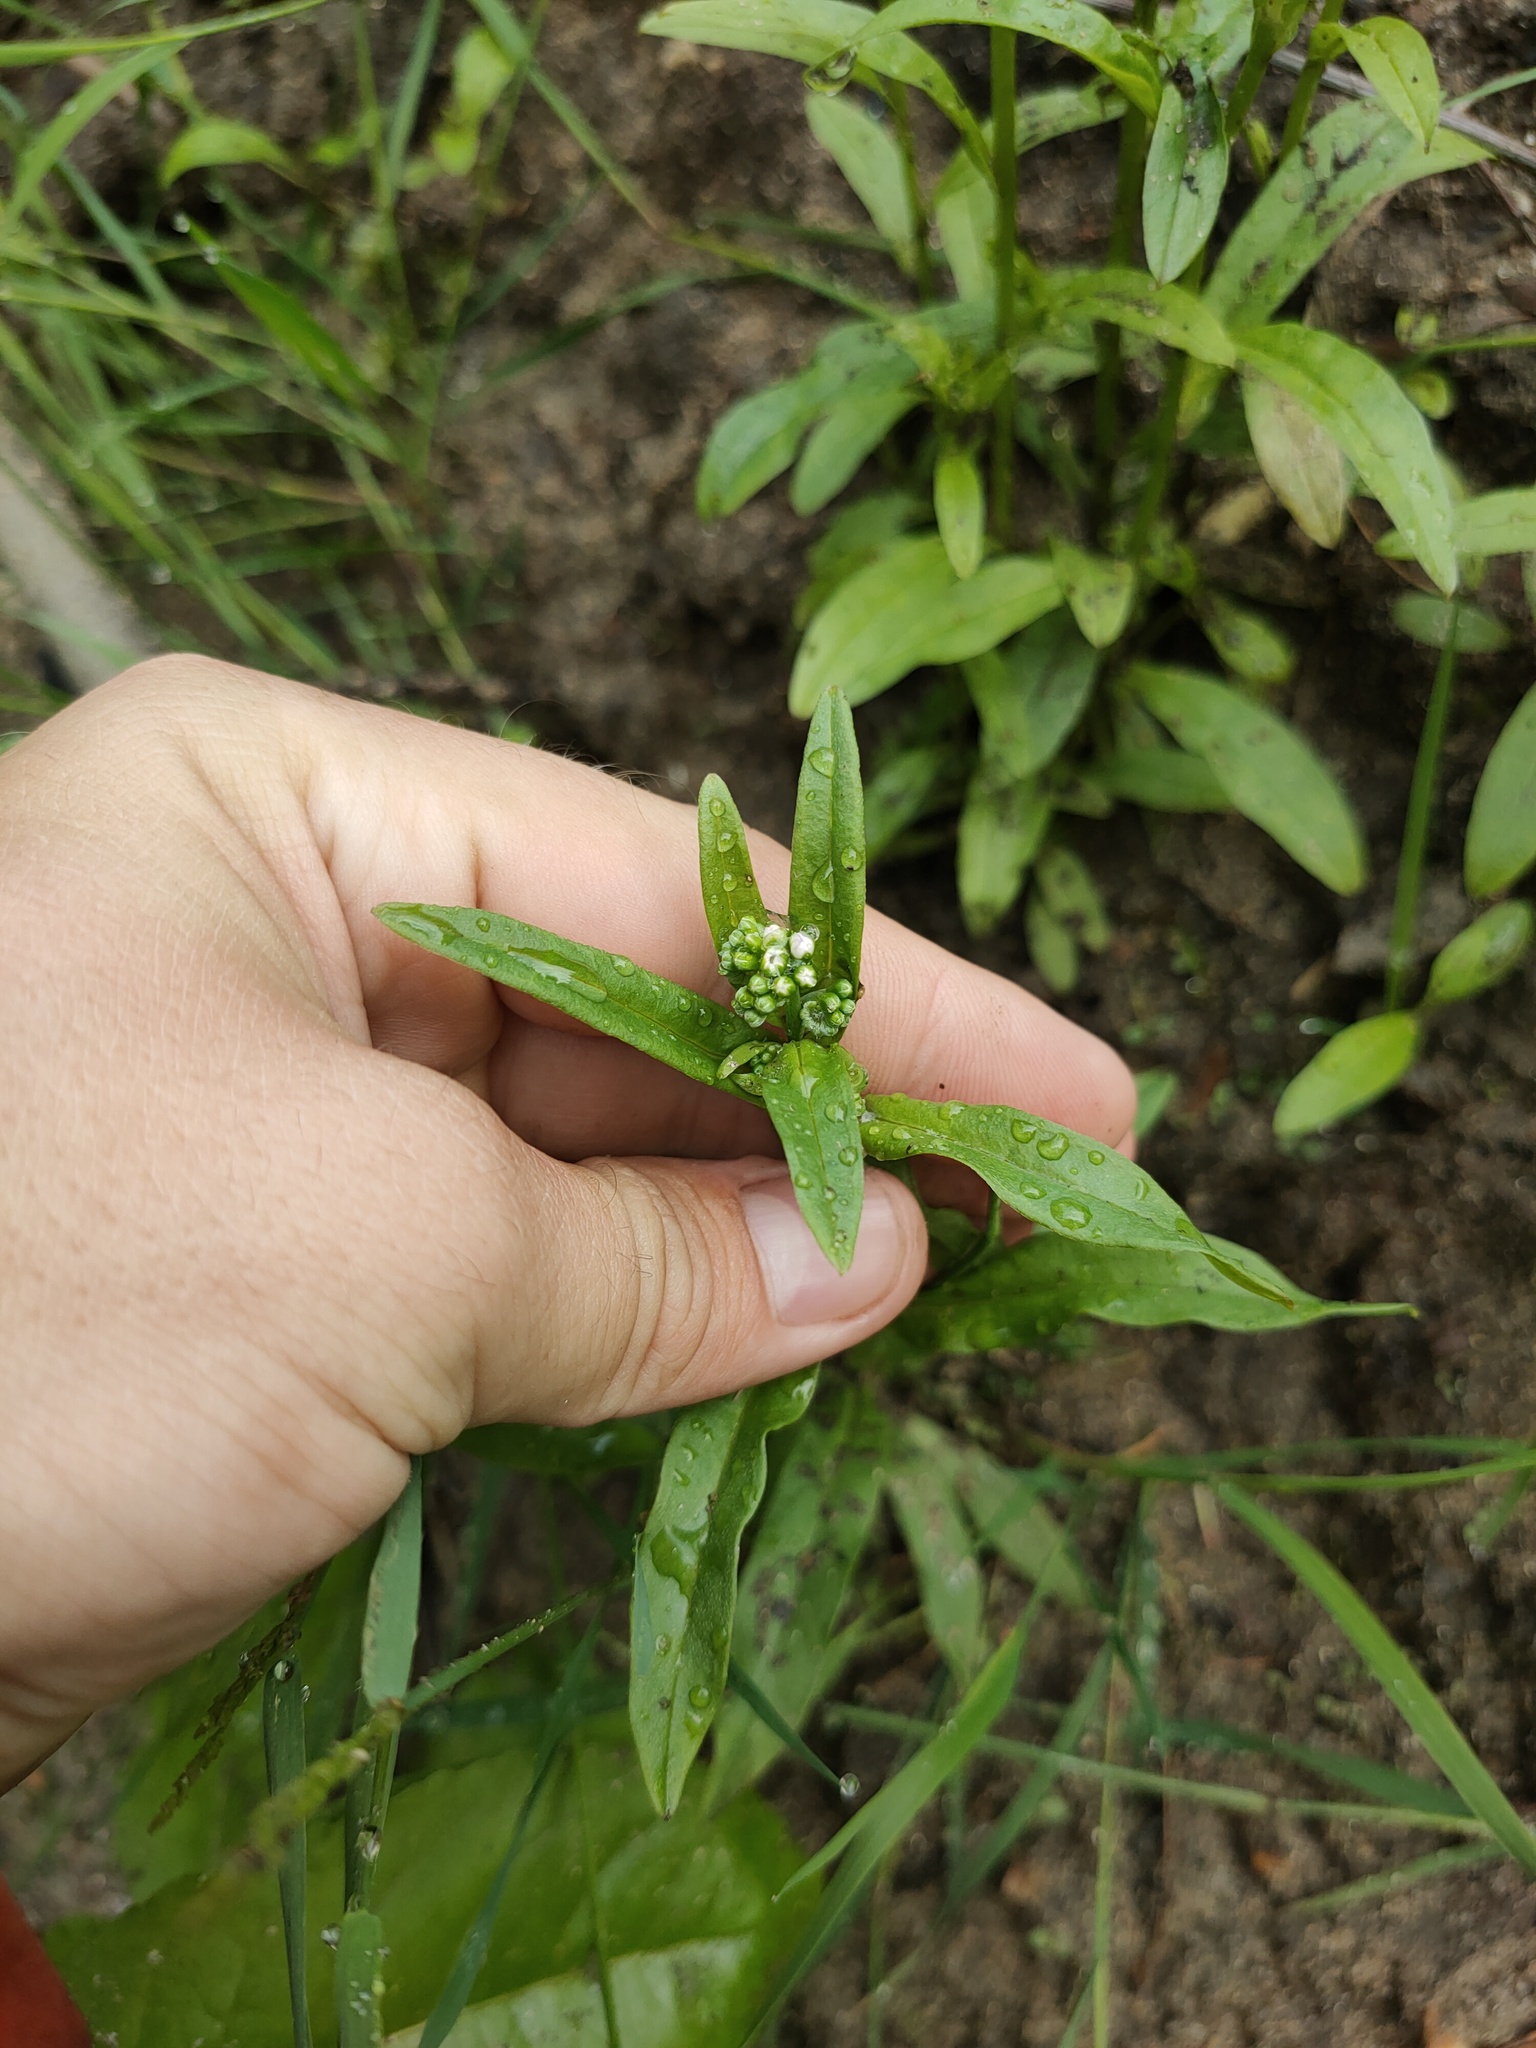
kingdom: Plantae
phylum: Tracheophyta
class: Magnoliopsida
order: Boraginales
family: Boraginaceae
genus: Myosotis
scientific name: Myosotis scorpioides
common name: Water forget-me-not
